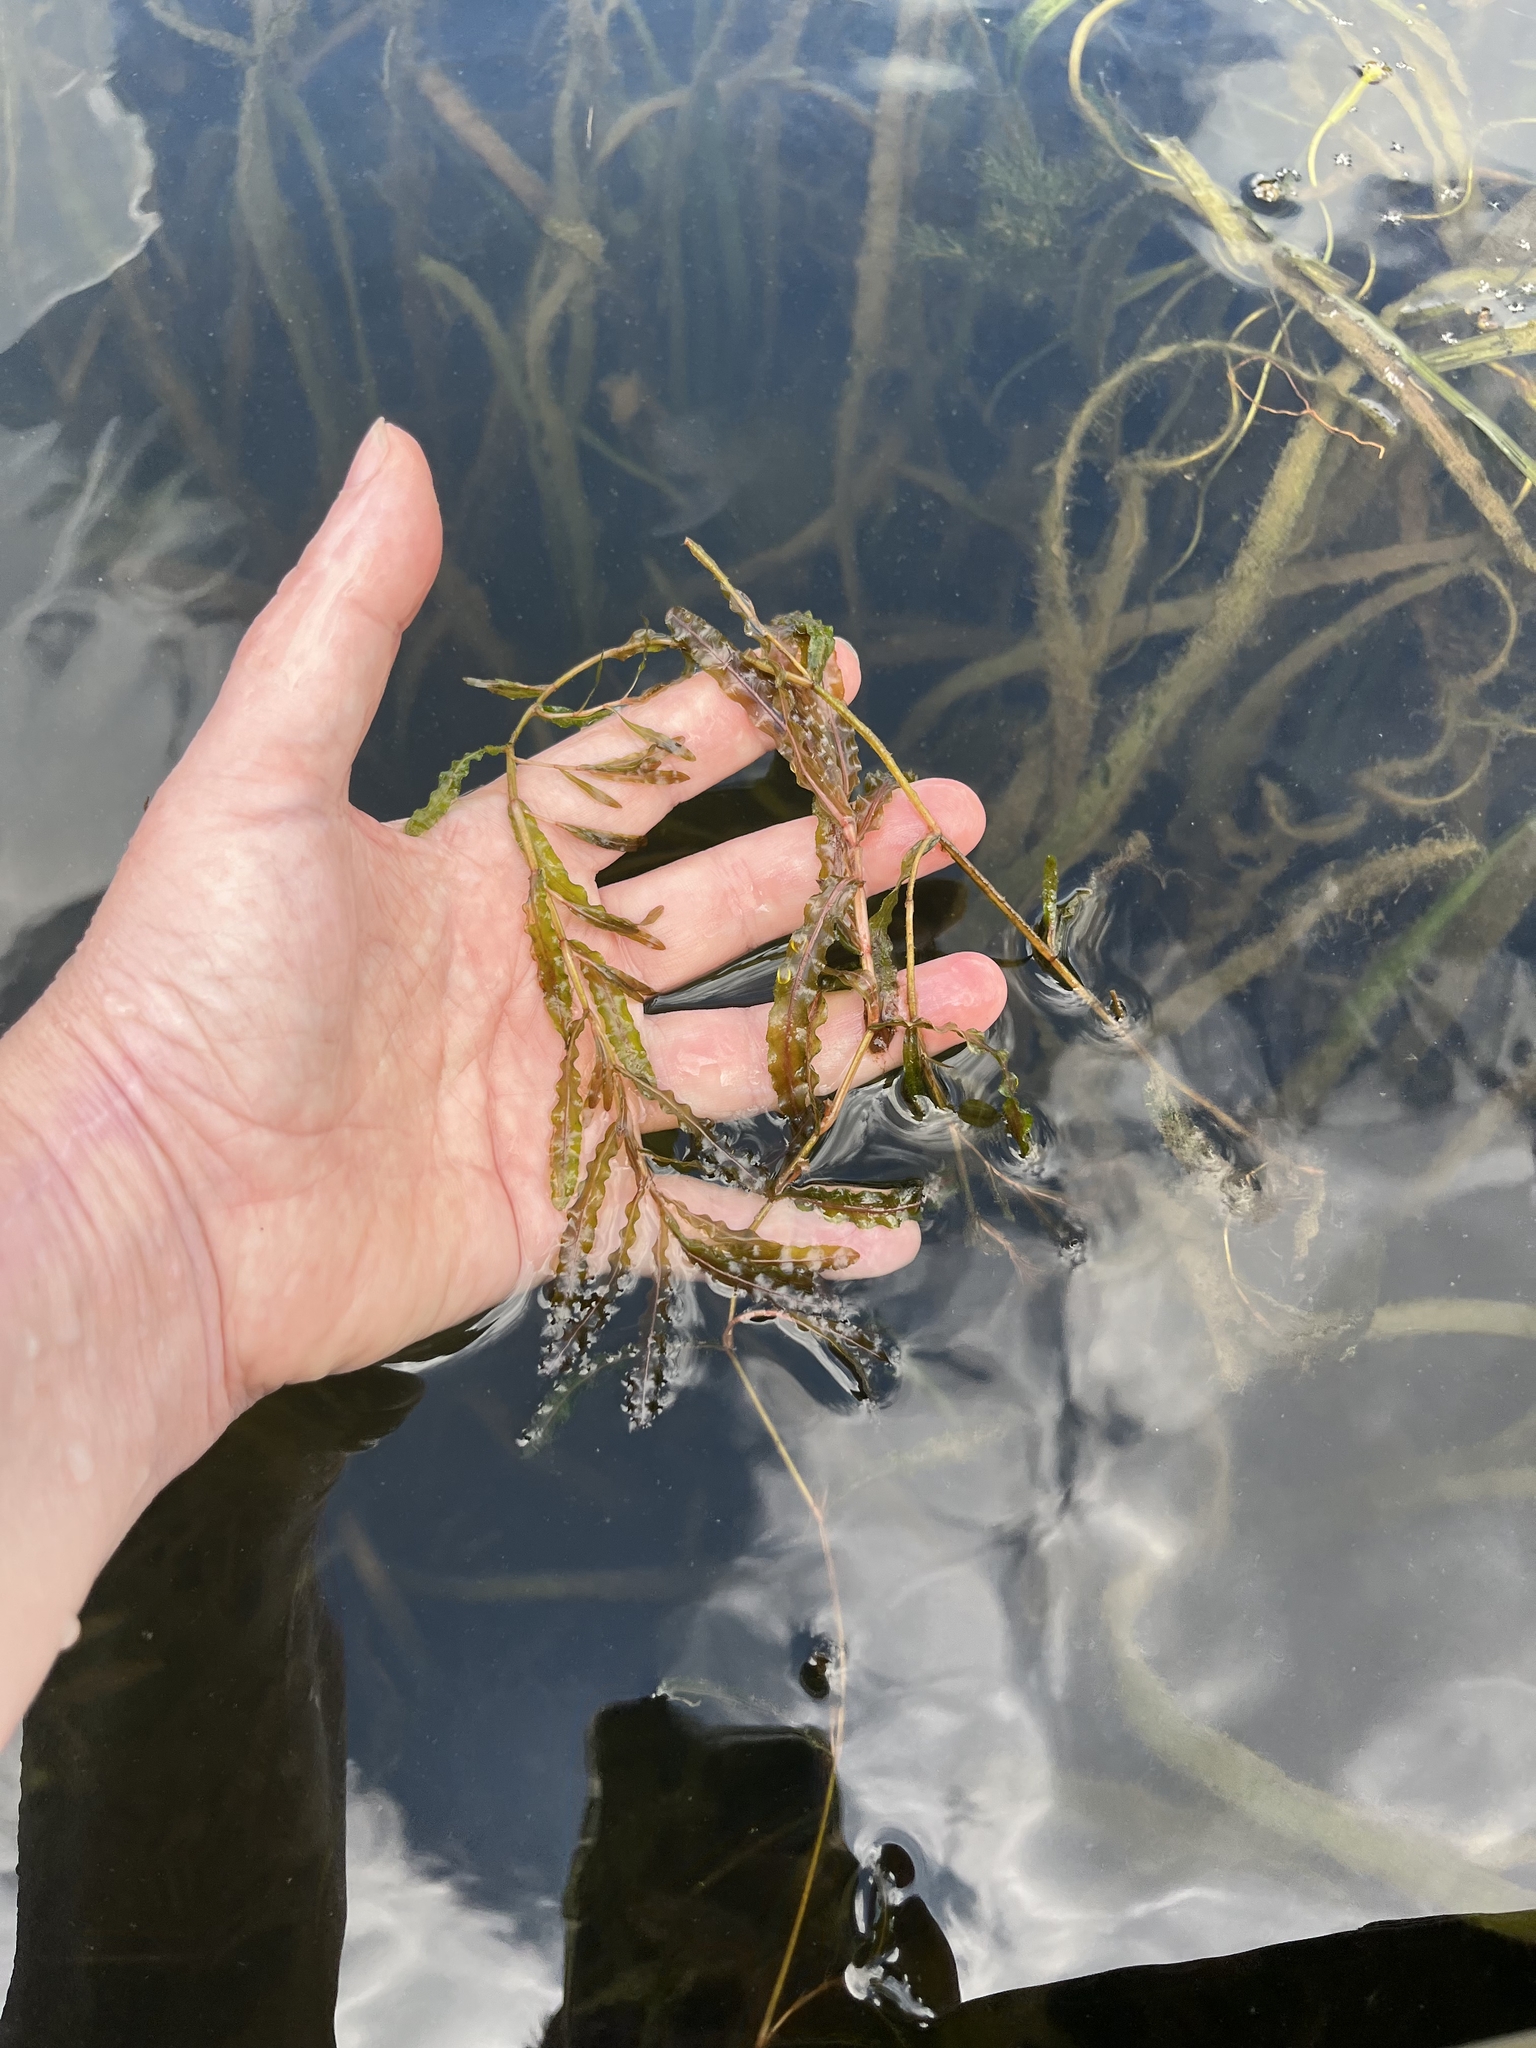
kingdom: Plantae
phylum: Tracheophyta
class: Liliopsida
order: Alismatales
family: Potamogetonaceae
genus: Potamogeton
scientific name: Potamogeton crispus
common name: Curled pondweed
